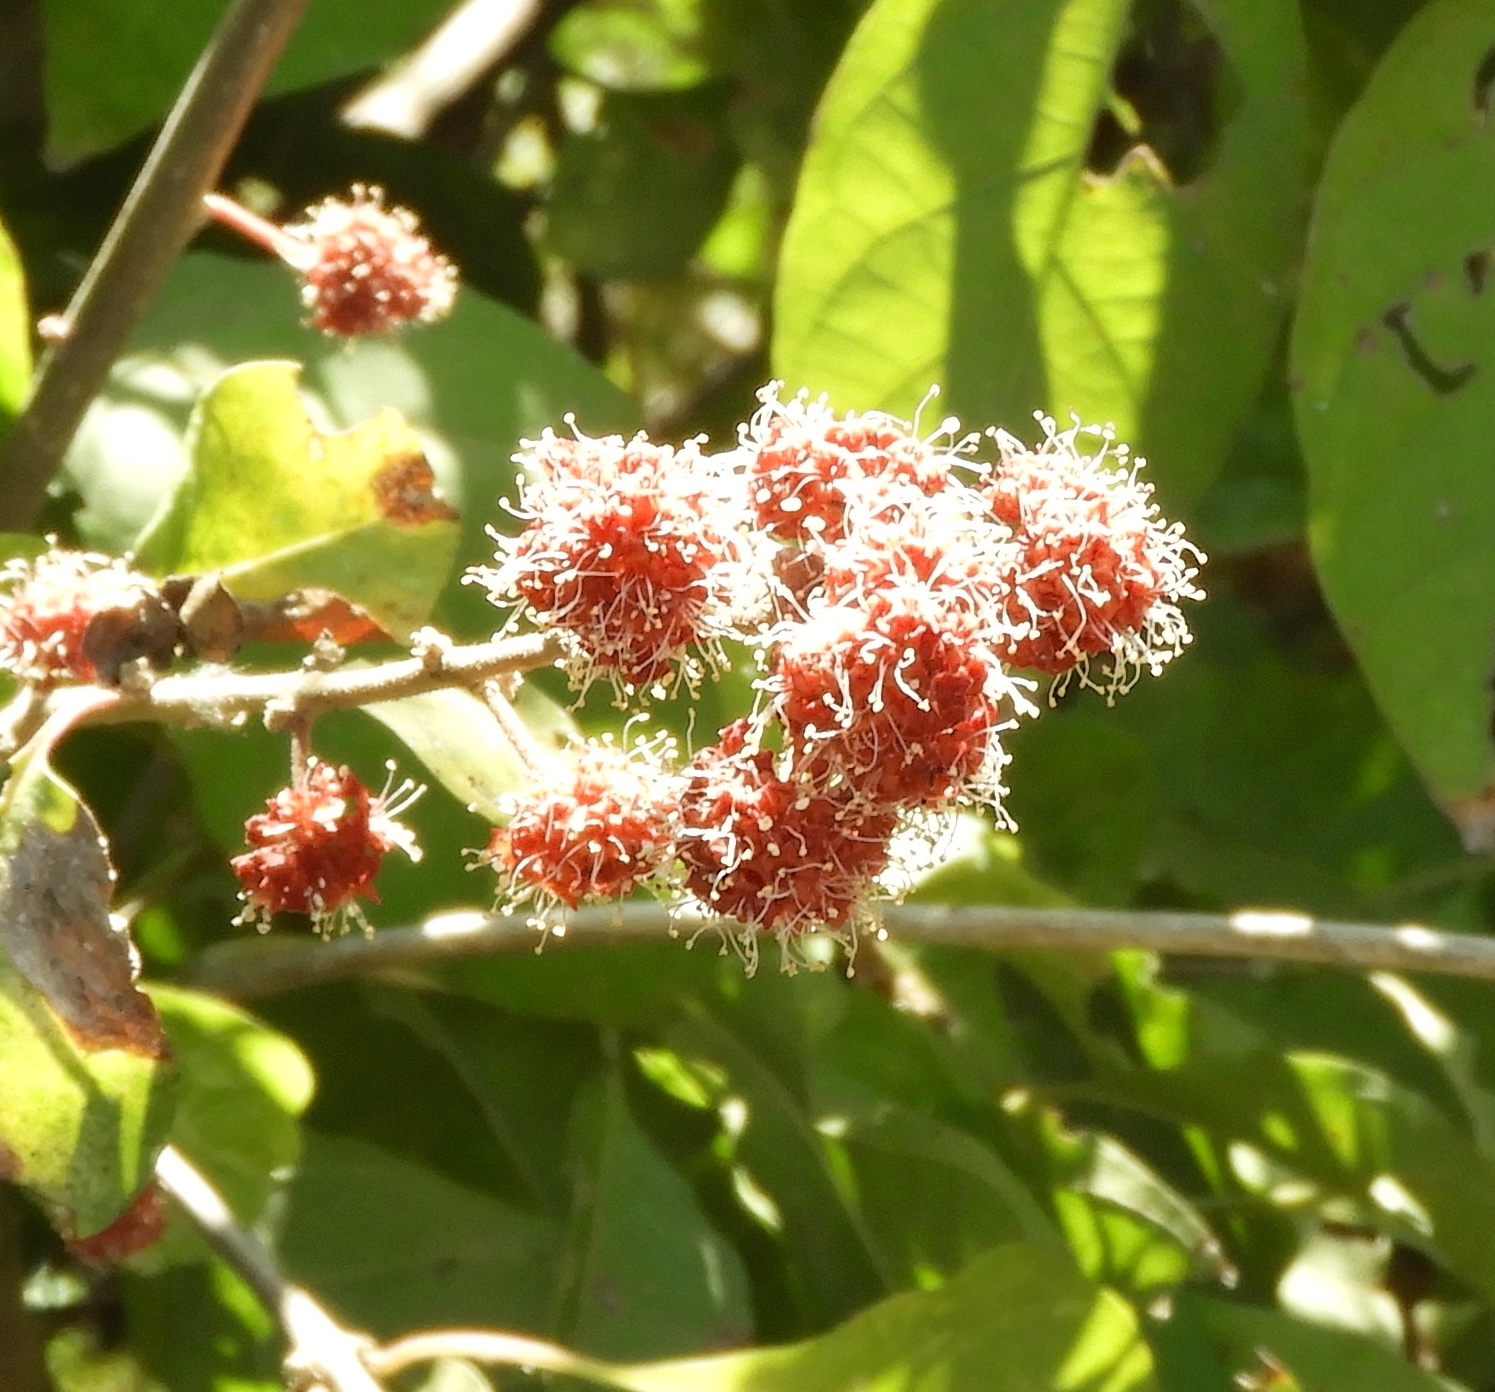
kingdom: Plantae
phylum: Tracheophyta
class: Magnoliopsida
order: Caryophyllales
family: Nyctaginaceae
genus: Pisonia
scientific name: Pisonia capitata
